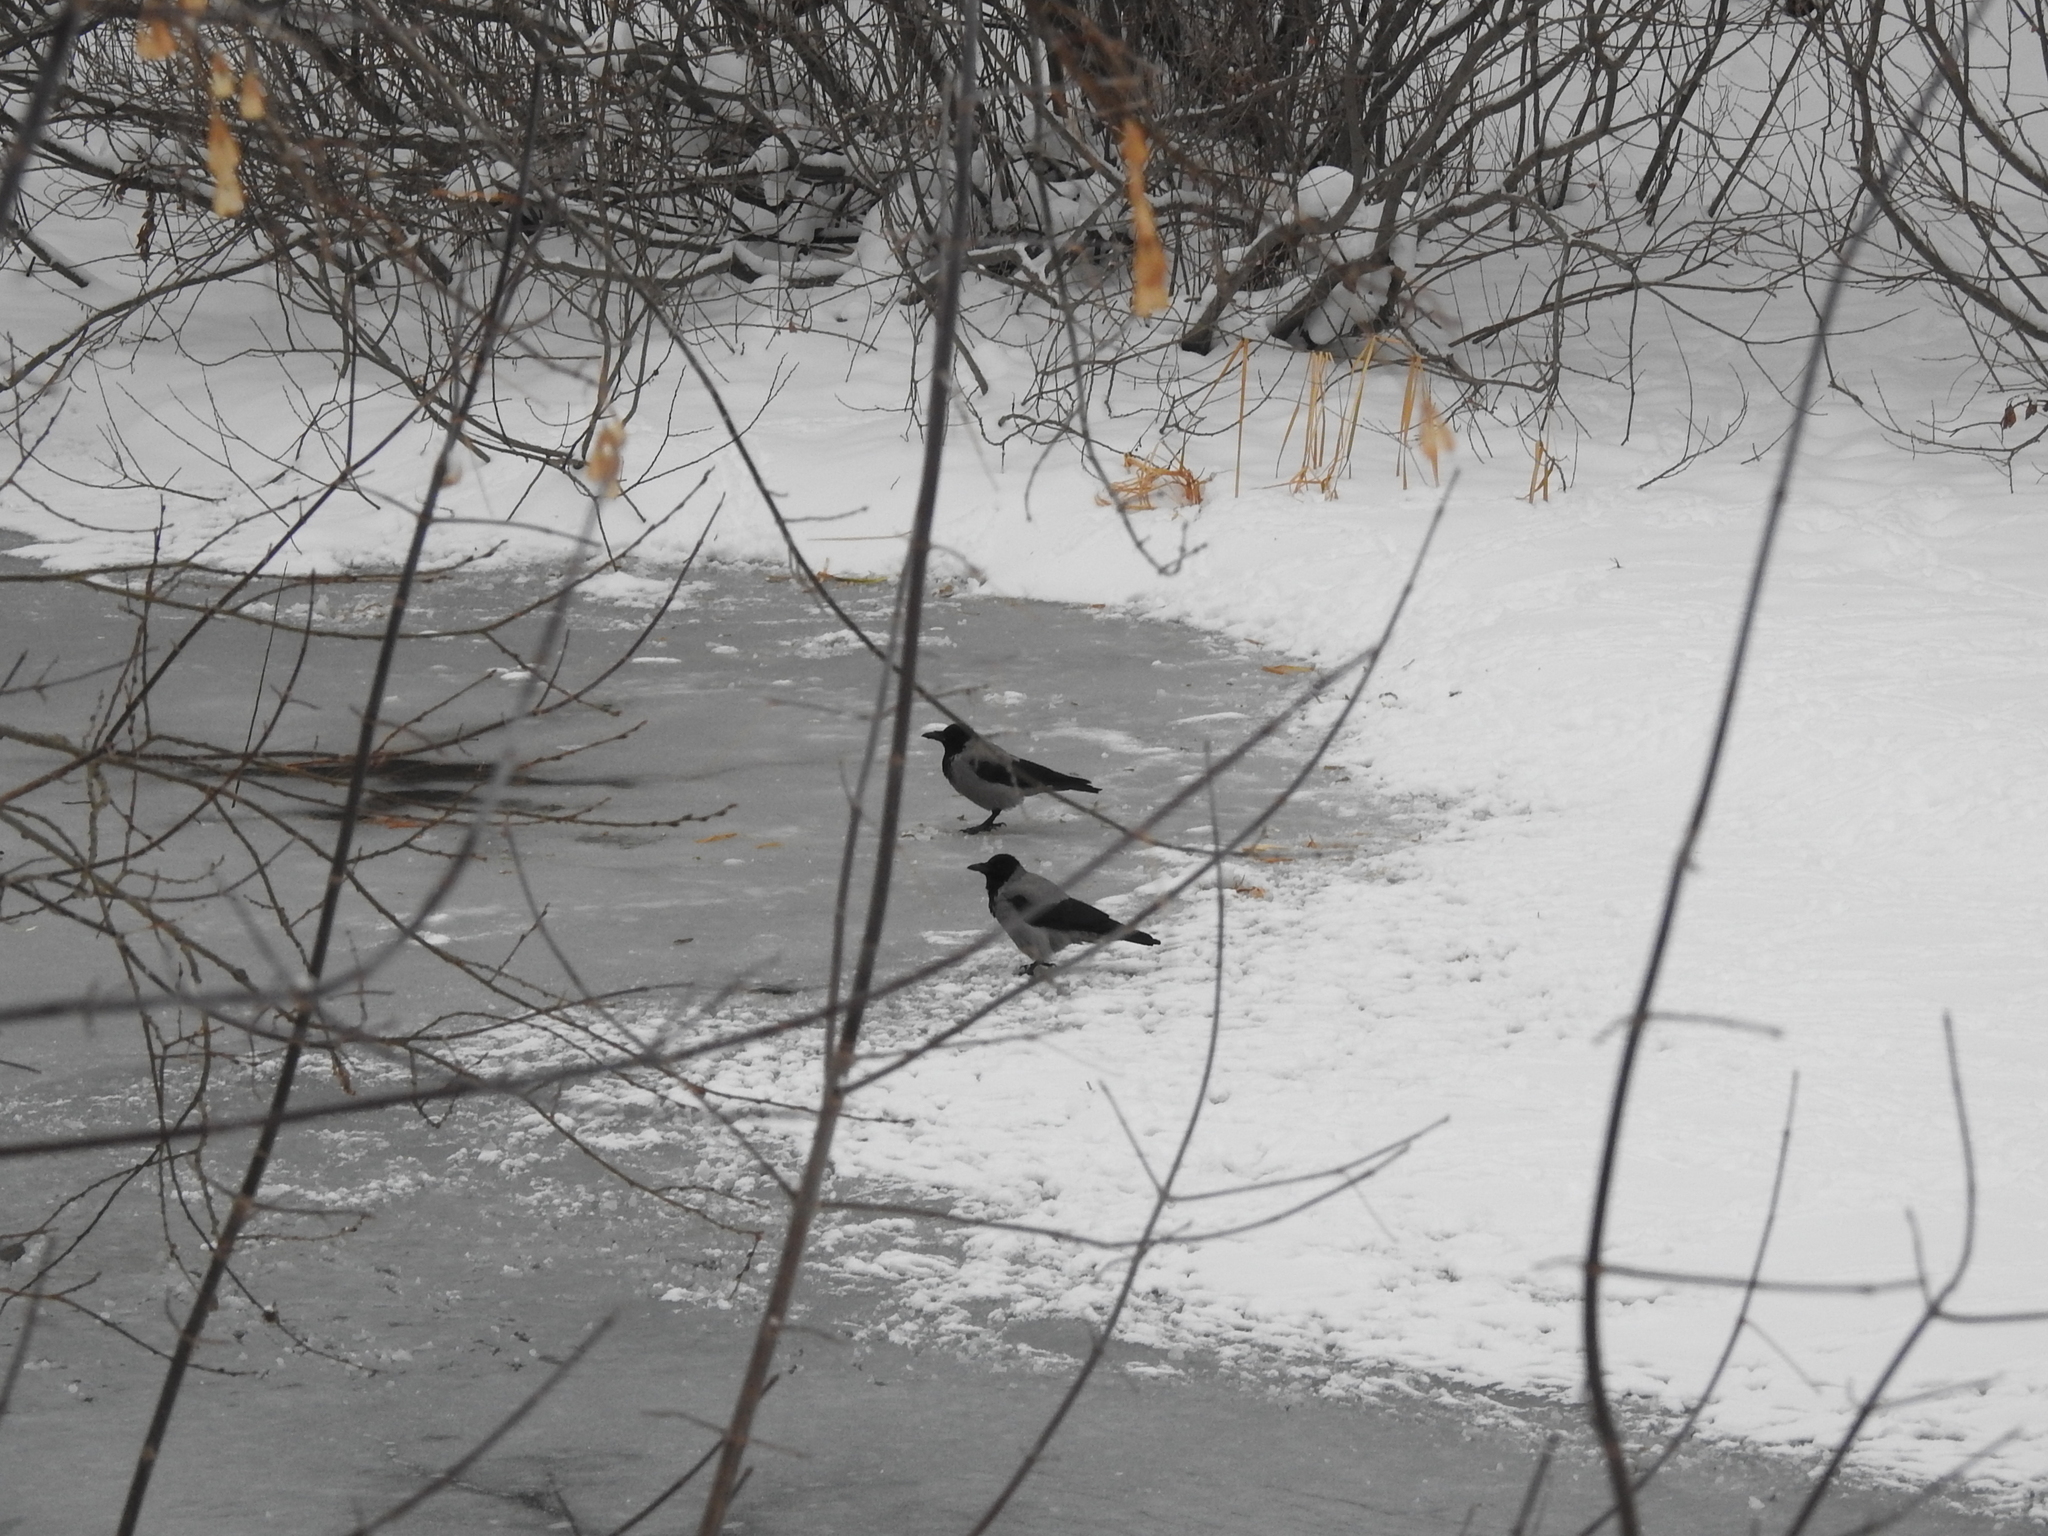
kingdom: Animalia
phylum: Chordata
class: Aves
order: Passeriformes
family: Corvidae
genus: Corvus
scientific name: Corvus cornix
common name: Hooded crow
